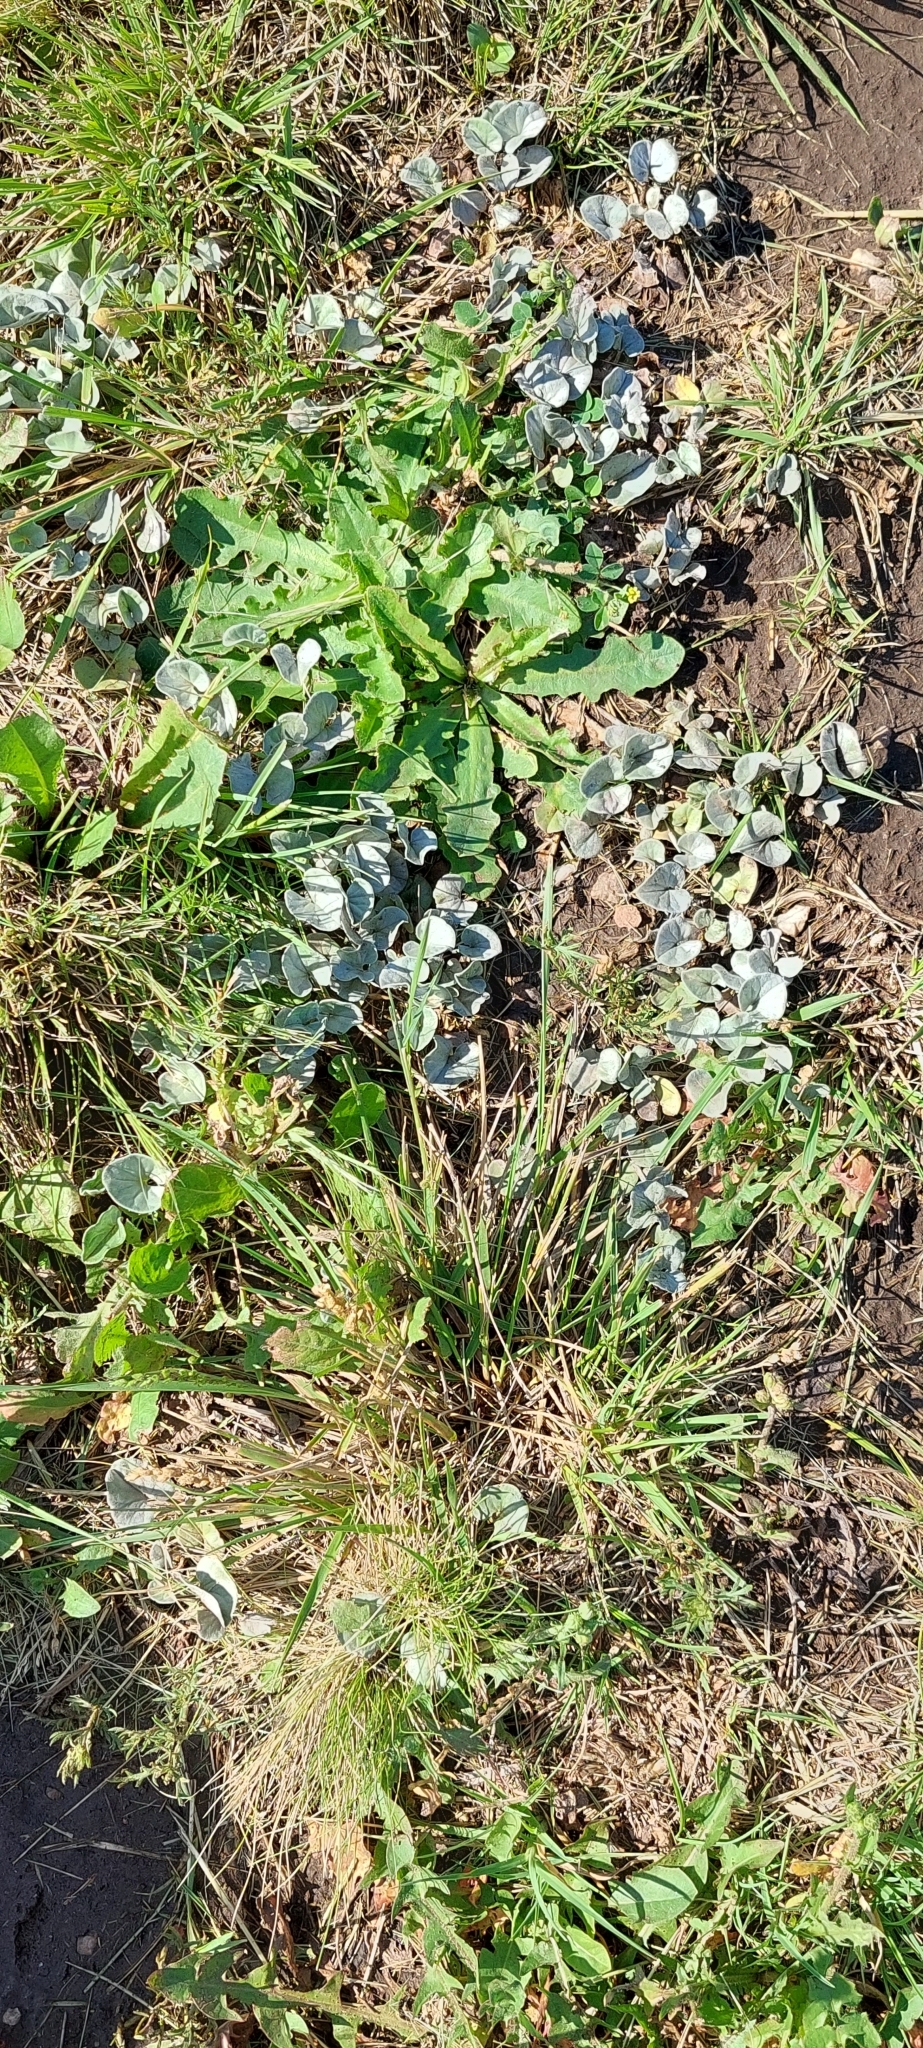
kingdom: Plantae
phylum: Tracheophyta
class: Magnoliopsida
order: Solanales
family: Convolvulaceae
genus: Dichondra
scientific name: Dichondra sericea
